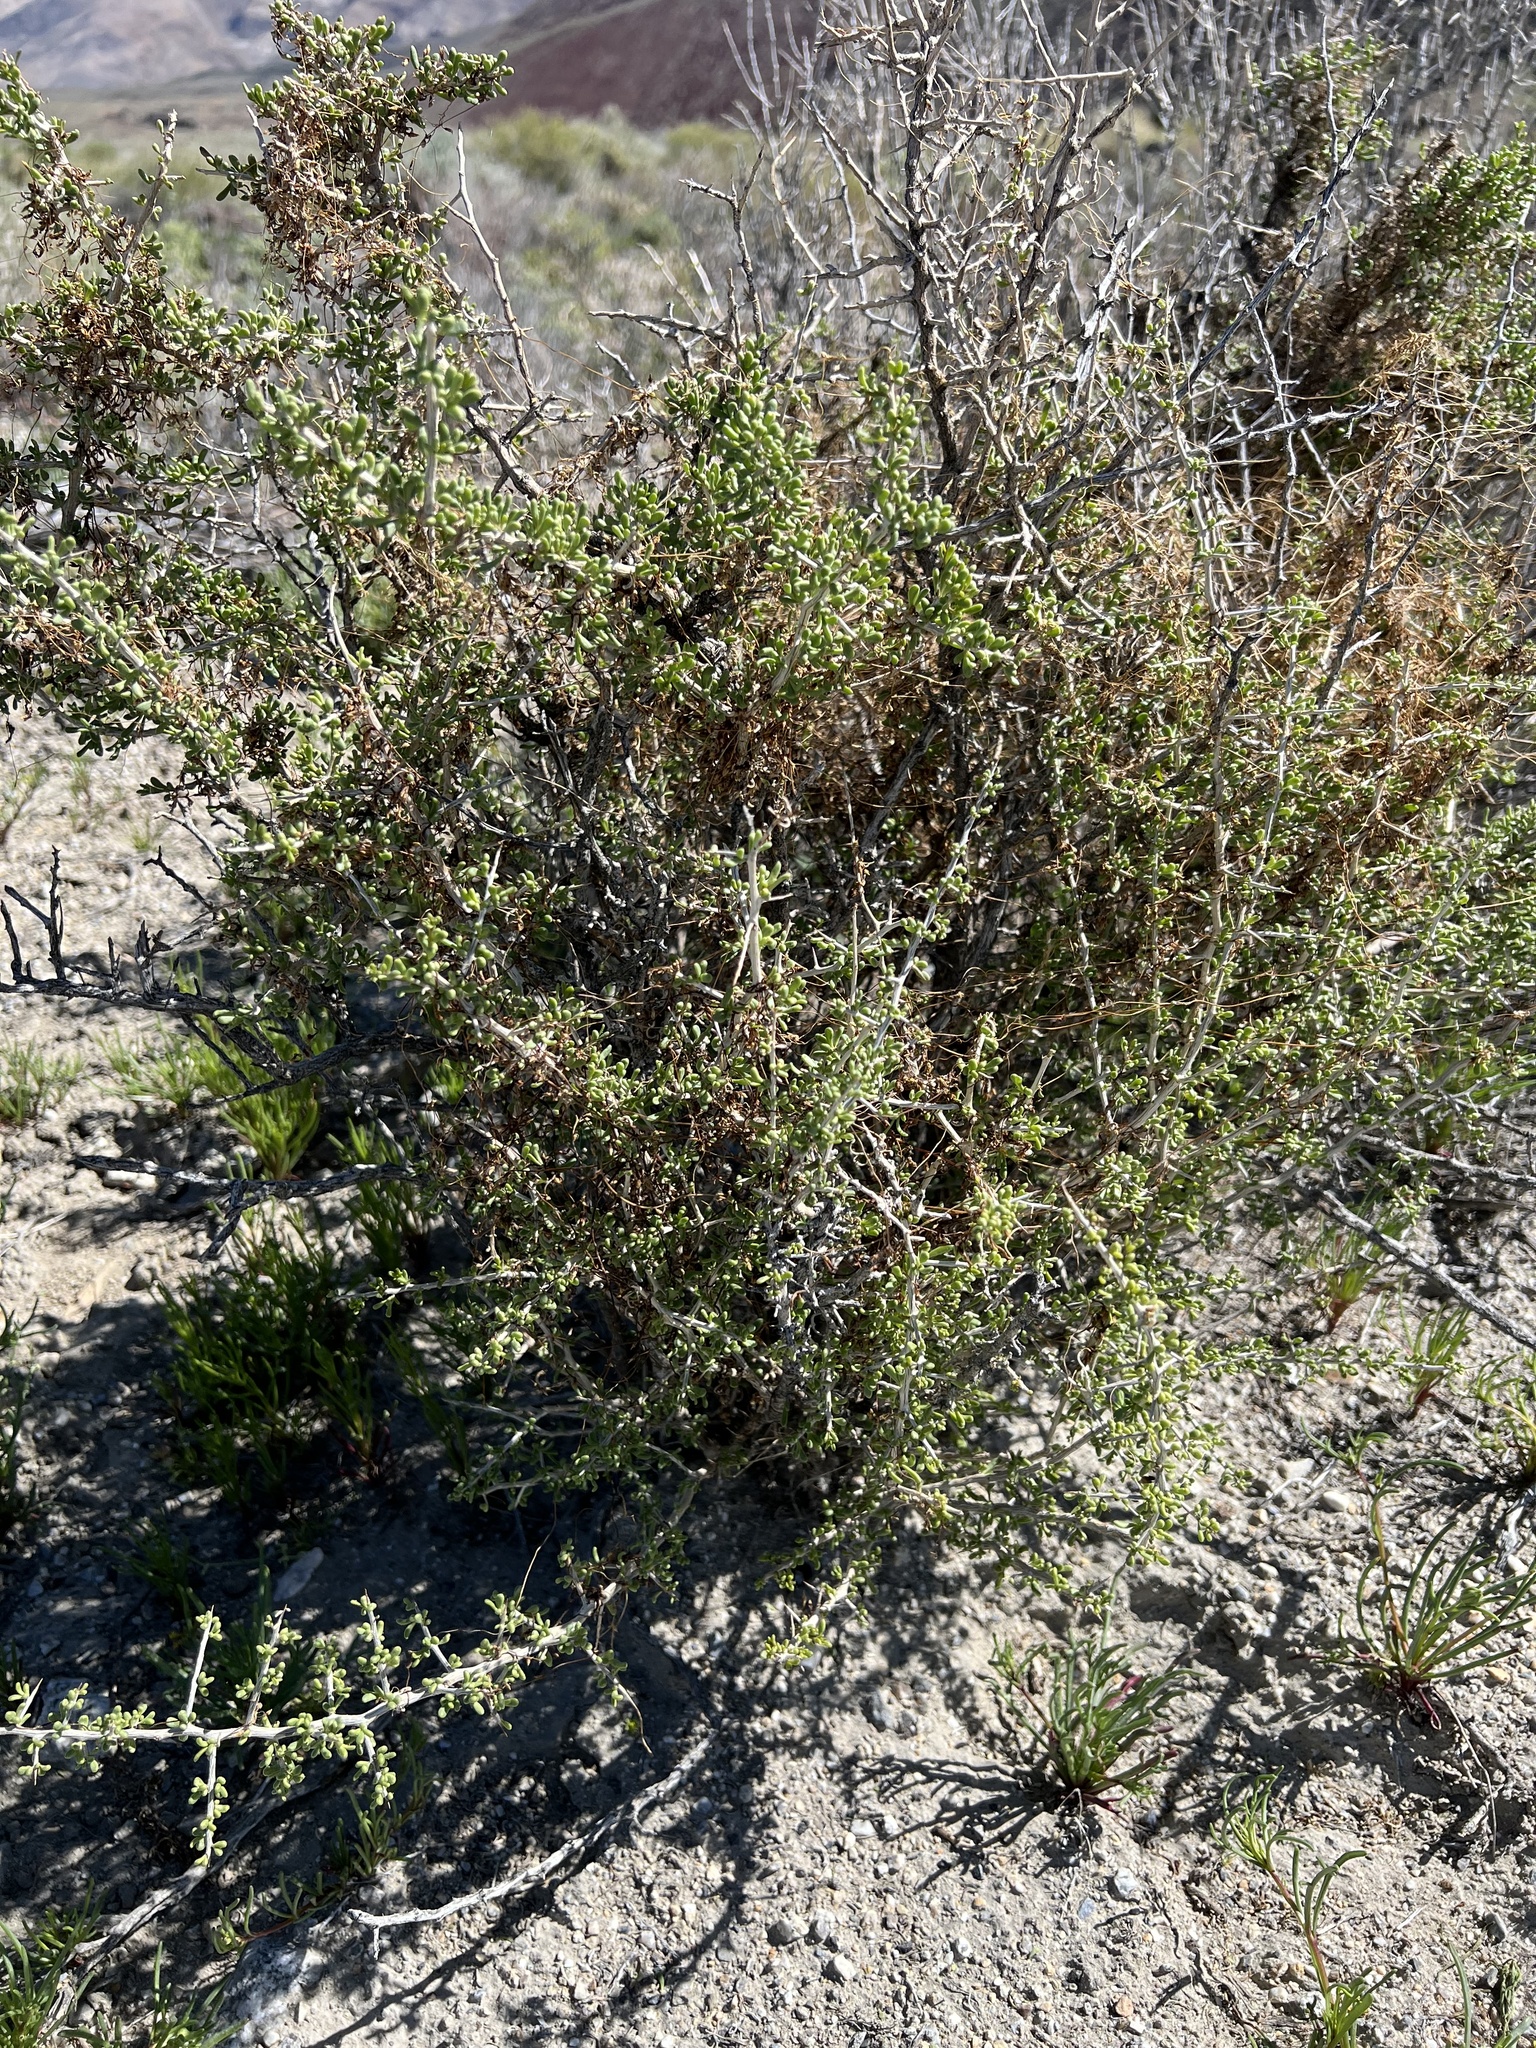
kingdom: Plantae
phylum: Tracheophyta
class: Magnoliopsida
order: Solanales
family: Solanaceae
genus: Lycium
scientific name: Lycium andersonii
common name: Water-jacket
